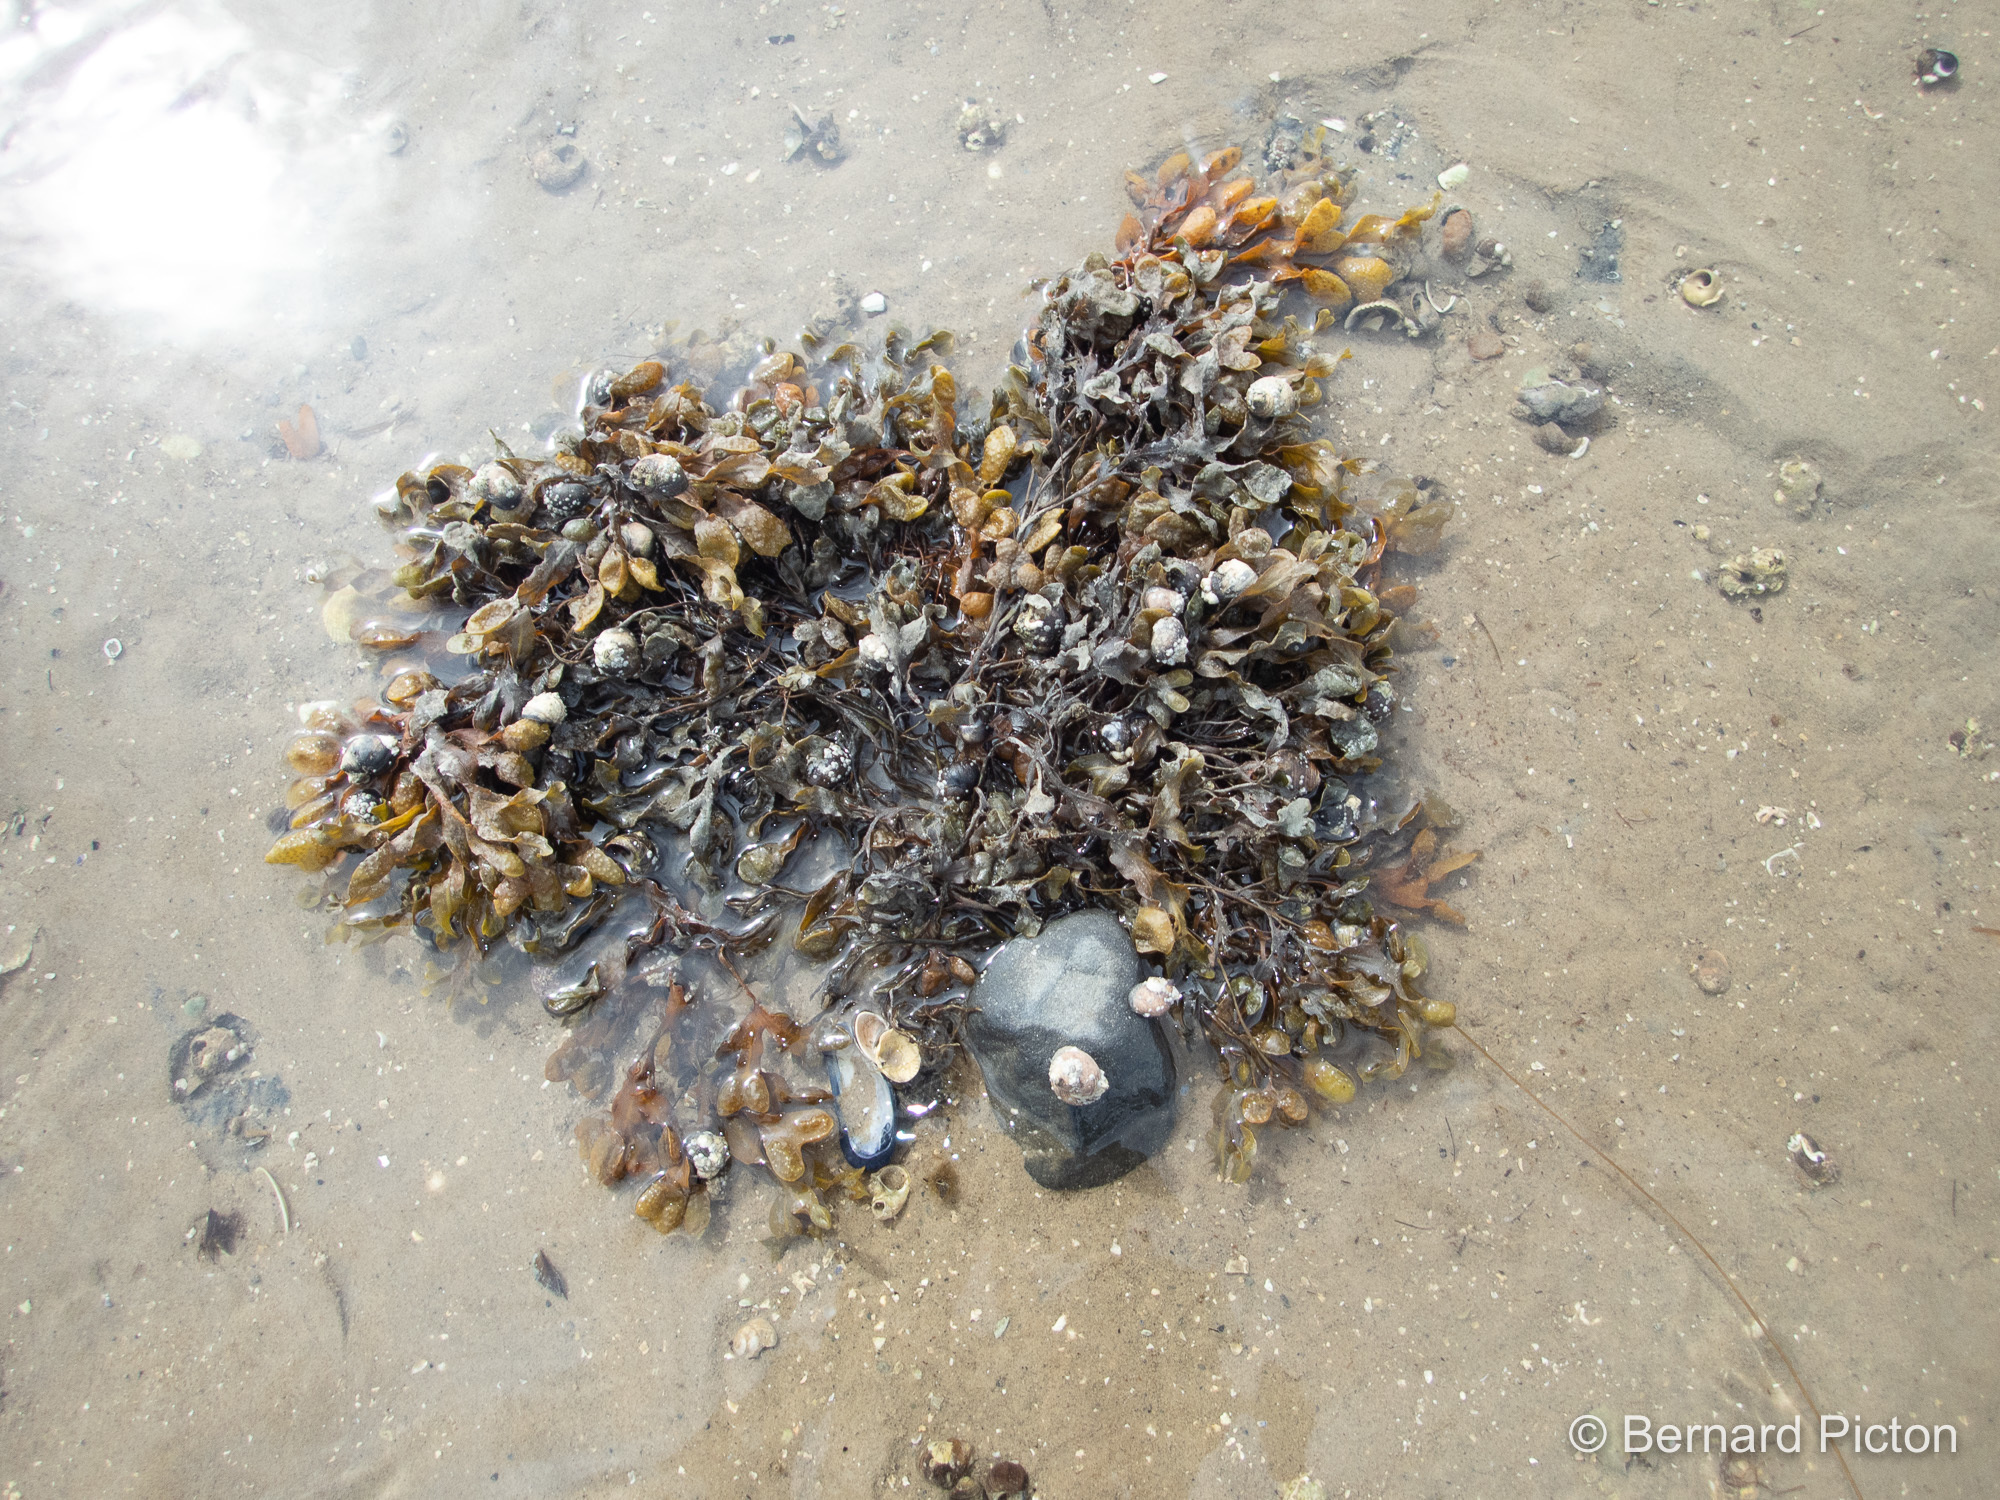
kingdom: Chromista
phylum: Ochrophyta
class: Phaeophyceae
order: Fucales
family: Fucaceae
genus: Fucus
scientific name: Fucus vesiculosus
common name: Bladder wrack
